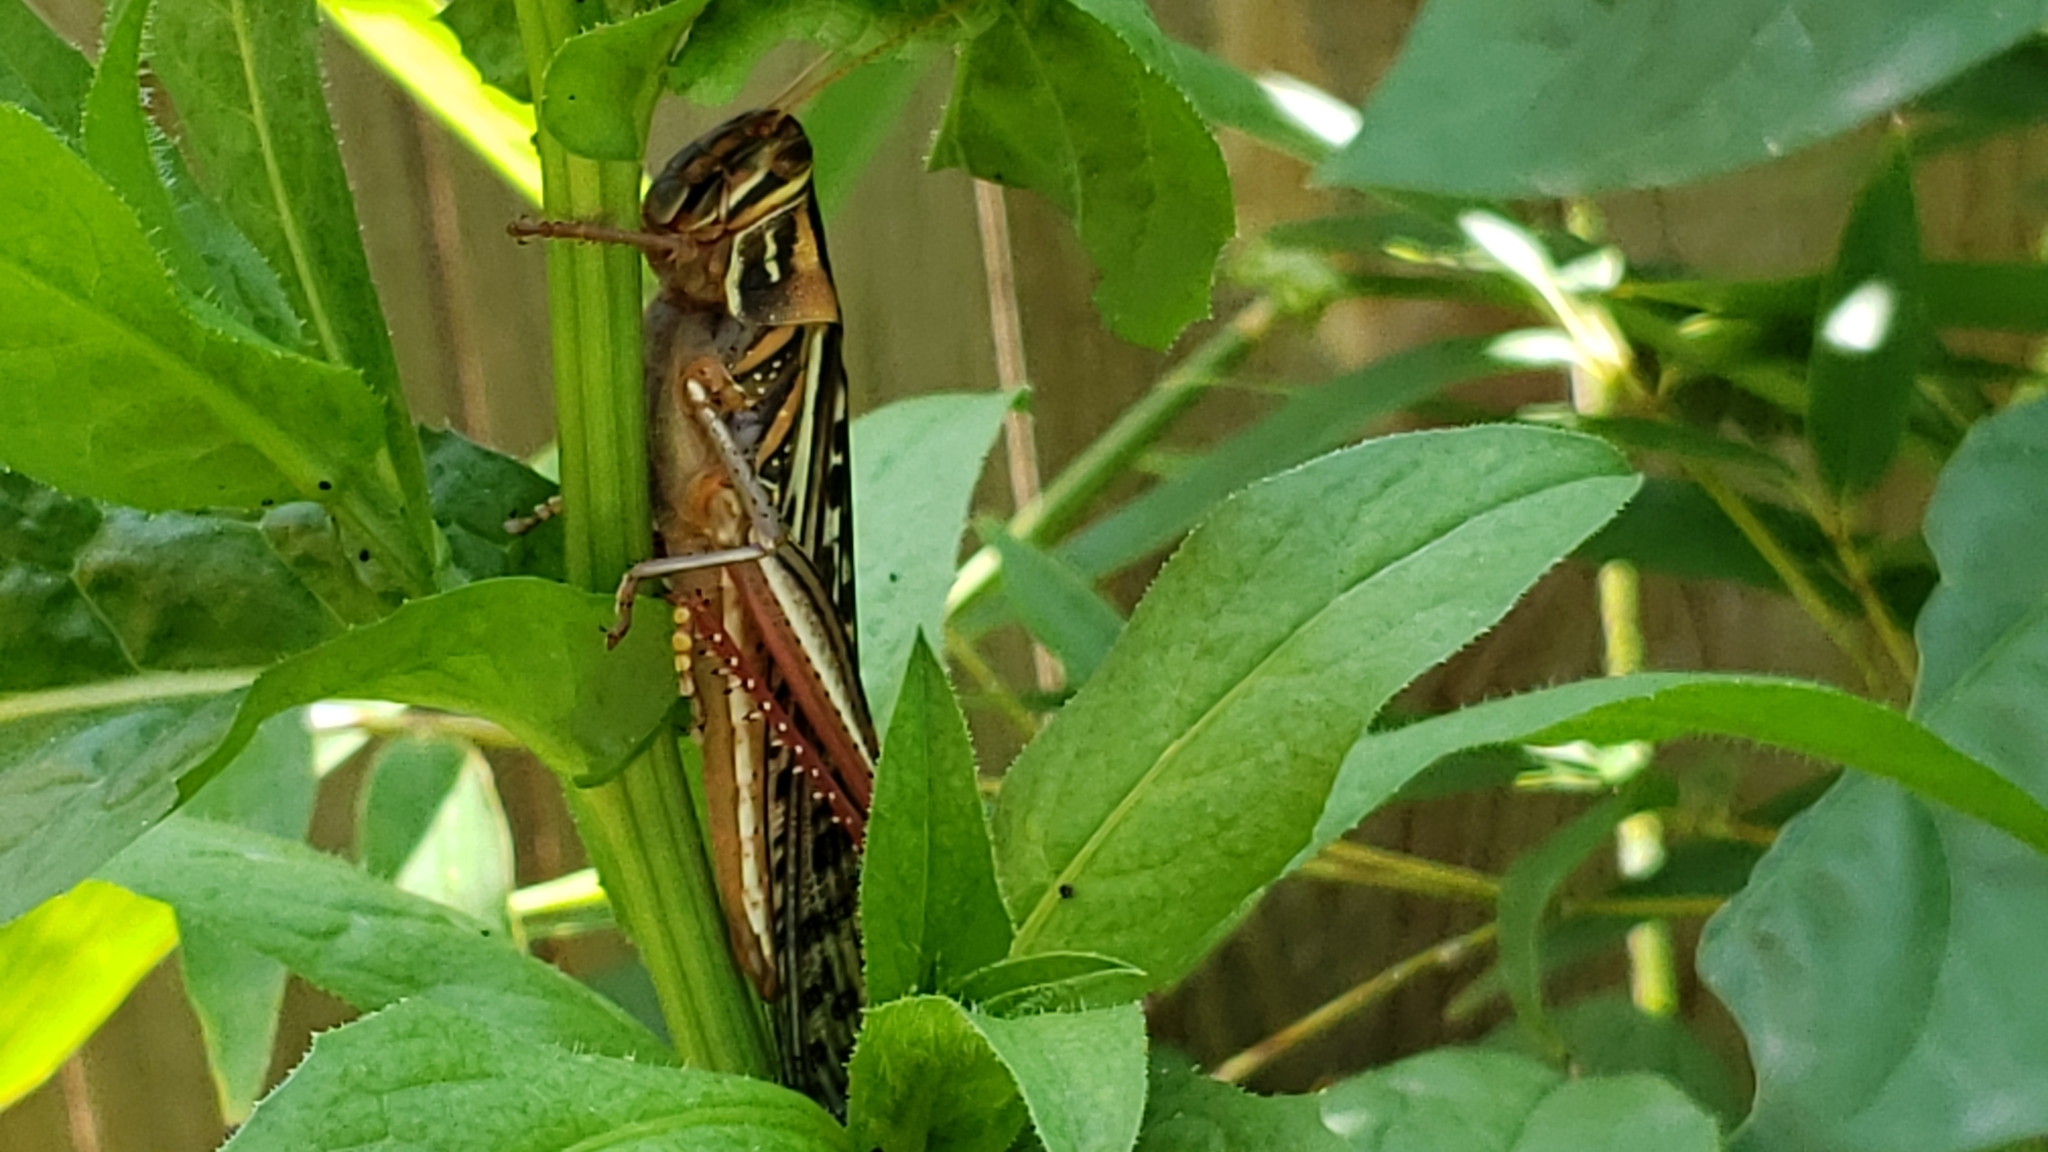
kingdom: Animalia
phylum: Arthropoda
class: Insecta
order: Orthoptera
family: Acrididae
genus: Schistocerca
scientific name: Schistocerca americana
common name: American bird locust
